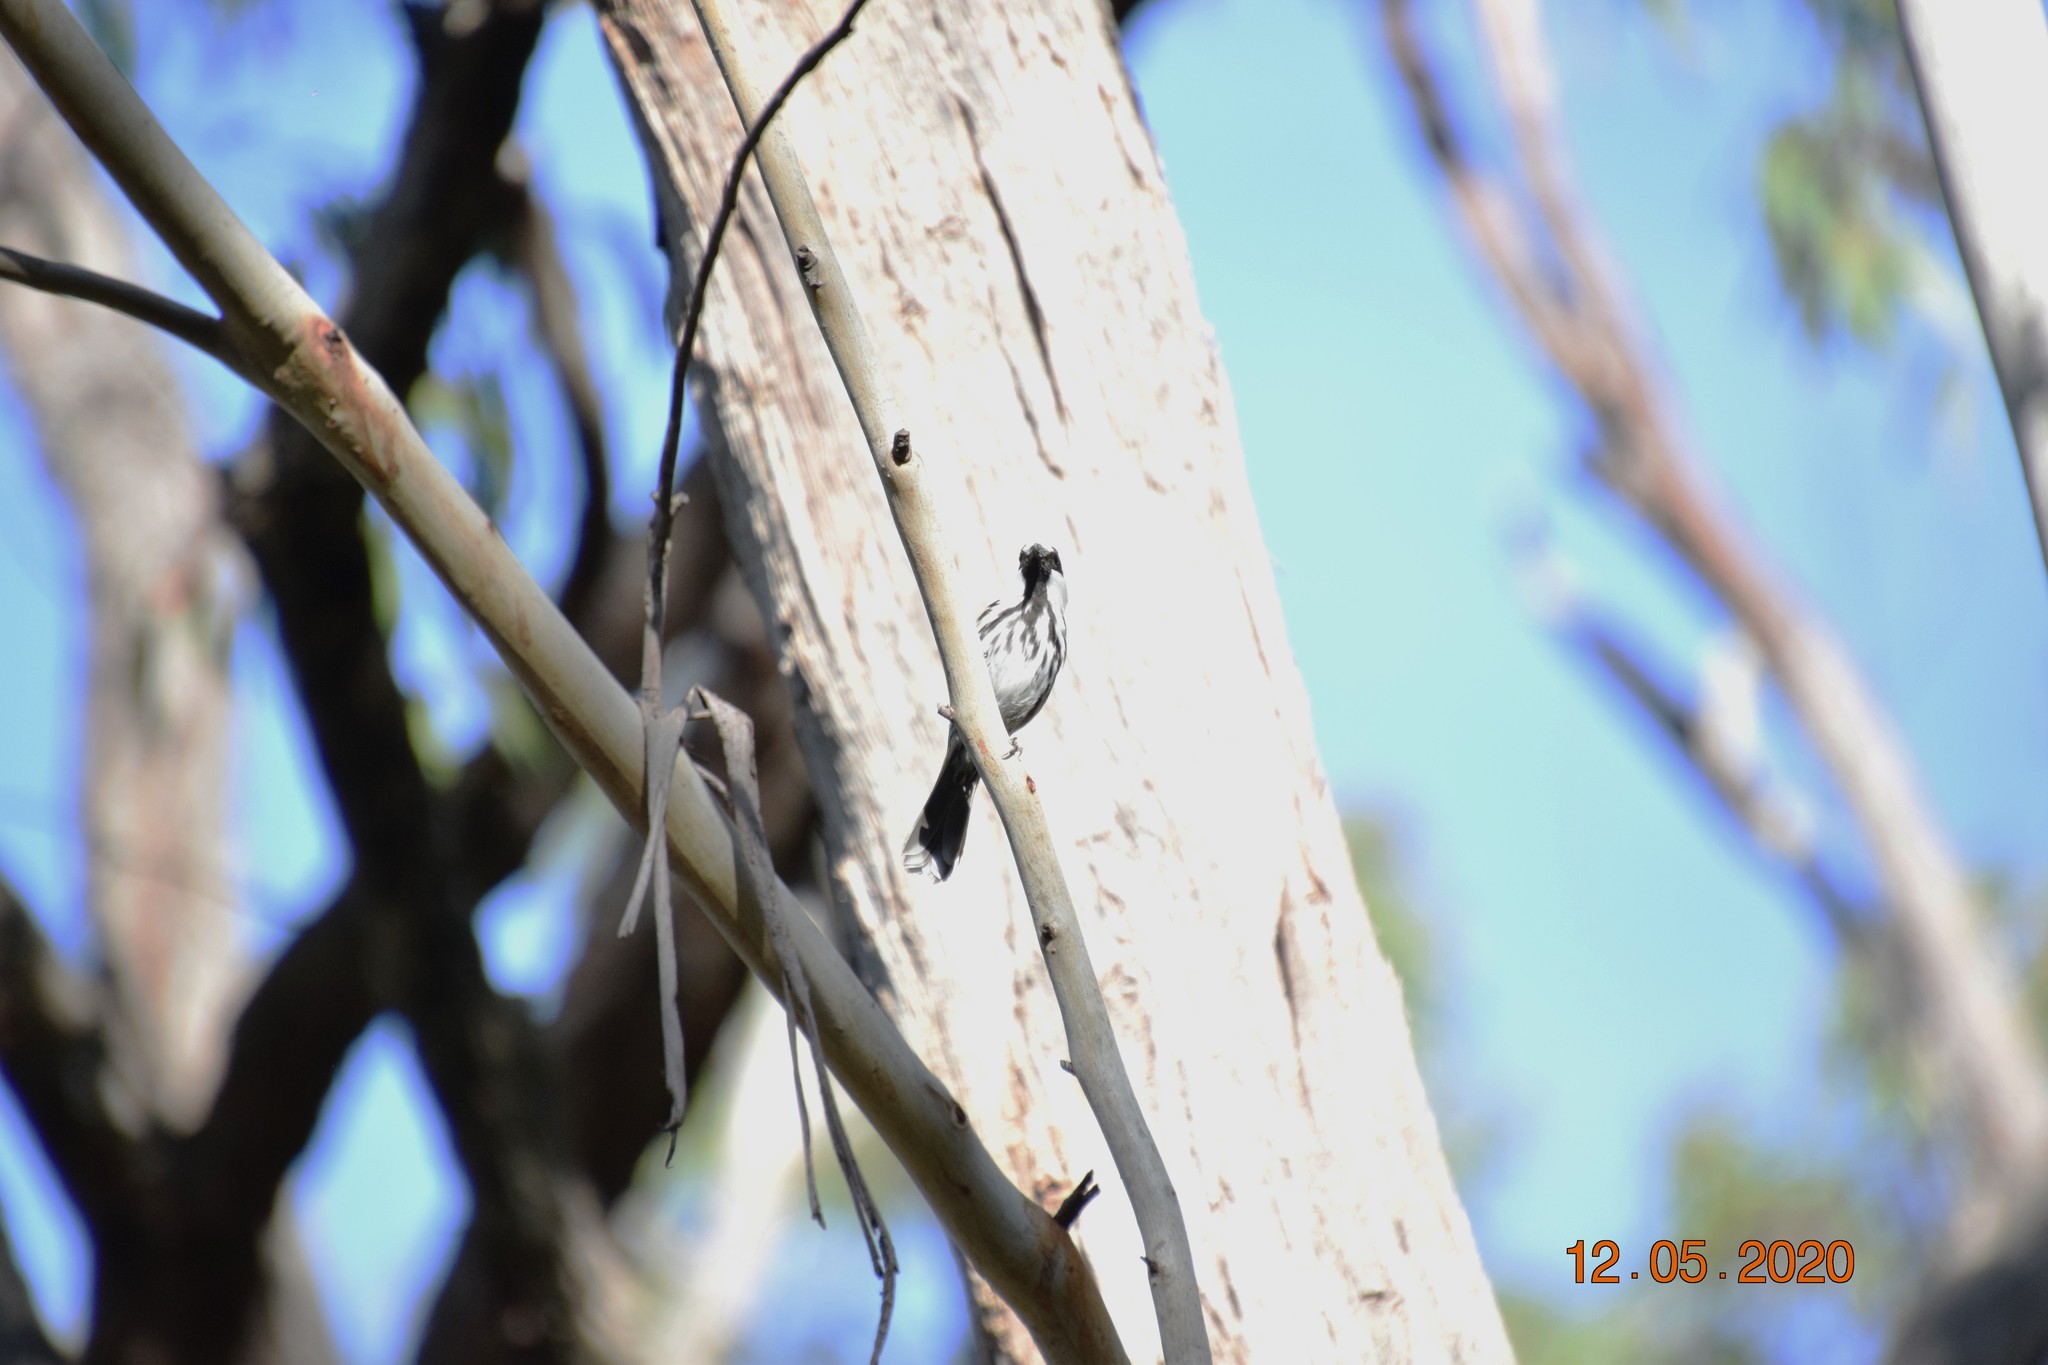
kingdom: Animalia
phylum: Chordata
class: Aves
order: Passeriformes
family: Meliphagidae
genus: Phylidonyris
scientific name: Phylidonyris niger
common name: White-cheeked honeyeater
